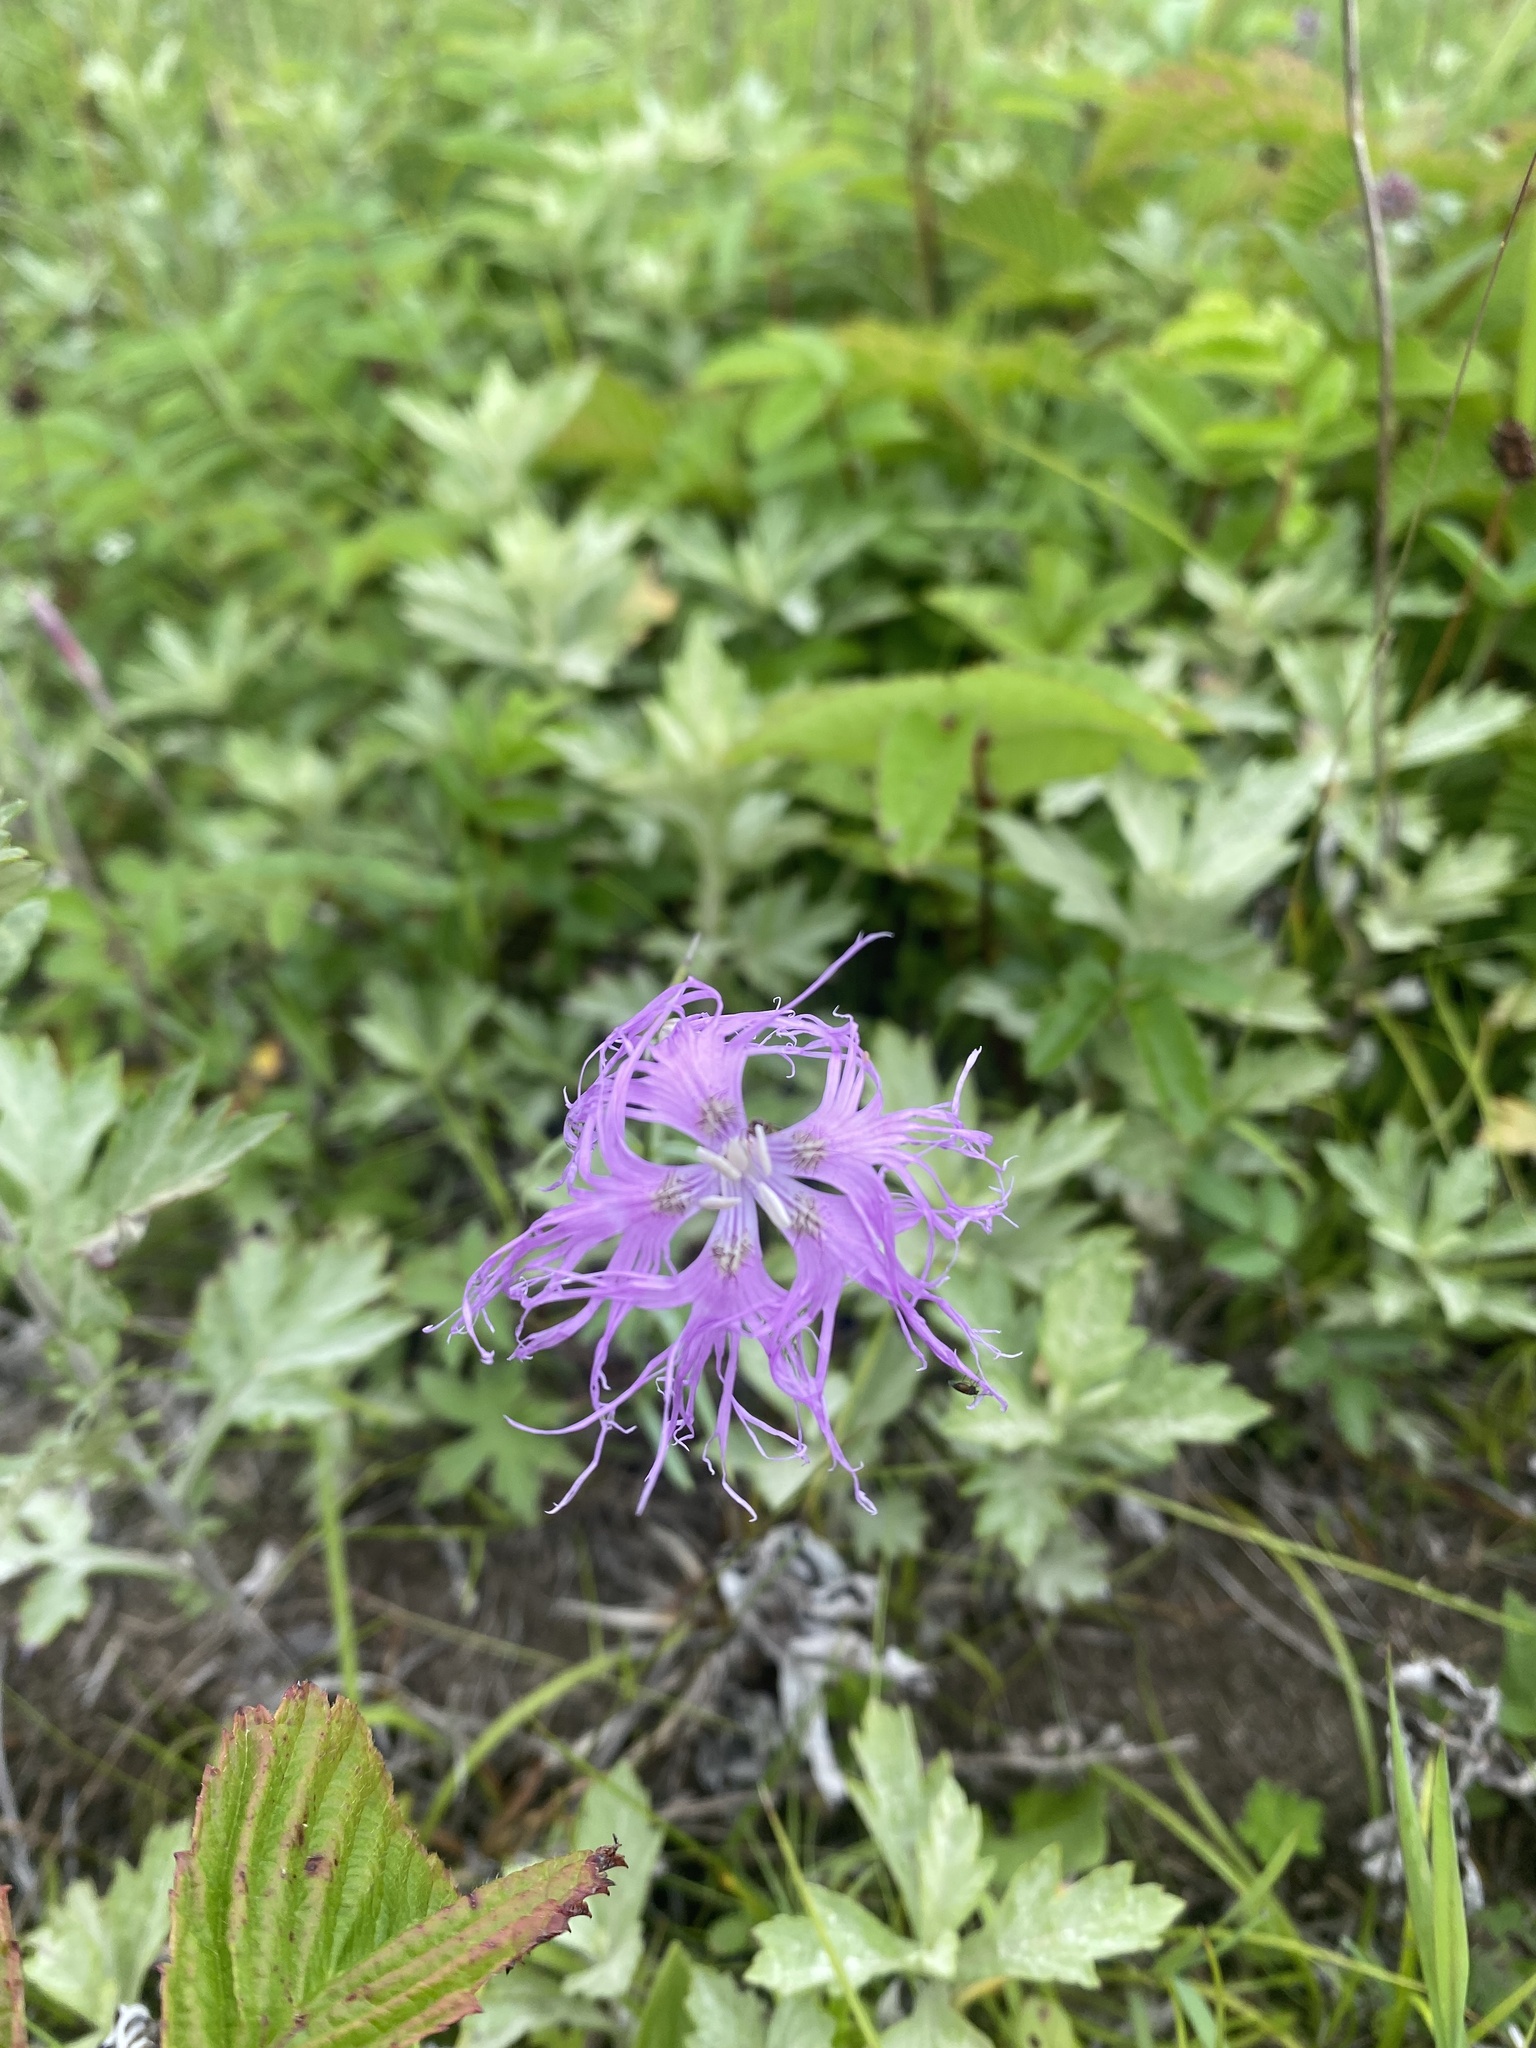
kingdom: Plantae
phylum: Tracheophyta
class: Magnoliopsida
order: Caryophyllales
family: Caryophyllaceae
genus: Dianthus
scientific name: Dianthus superbus
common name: Fringed pink
